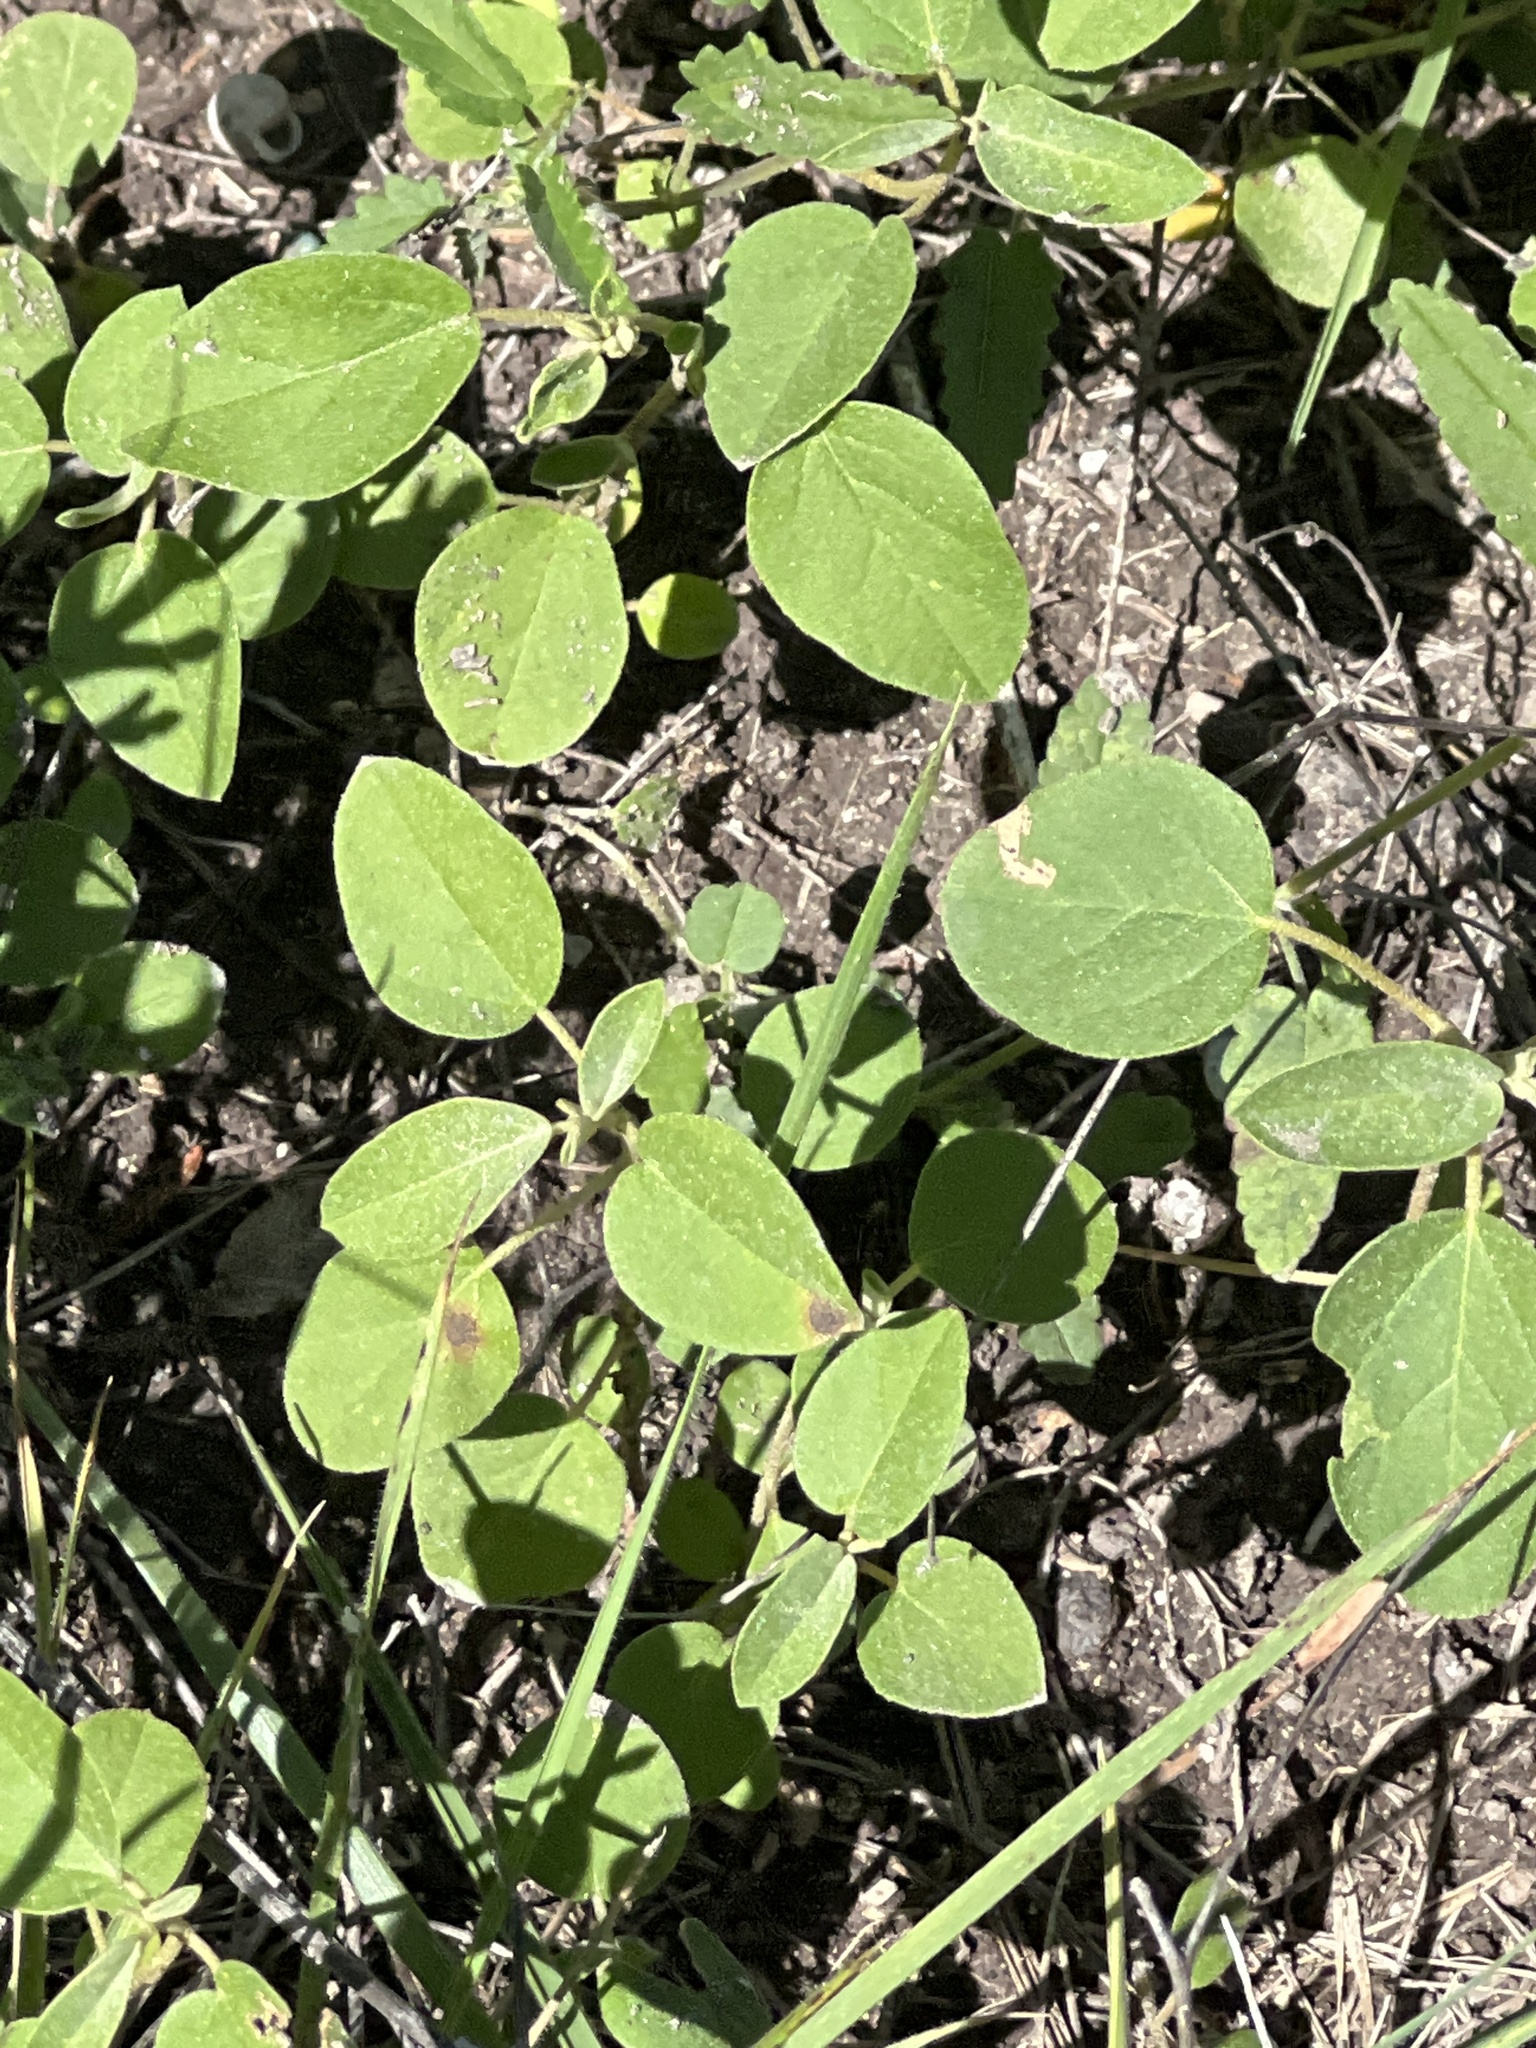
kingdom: Plantae
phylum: Tracheophyta
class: Magnoliopsida
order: Malpighiales
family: Euphorbiaceae
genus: Croton
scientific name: Croton monanthogynus
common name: One-seed croton
